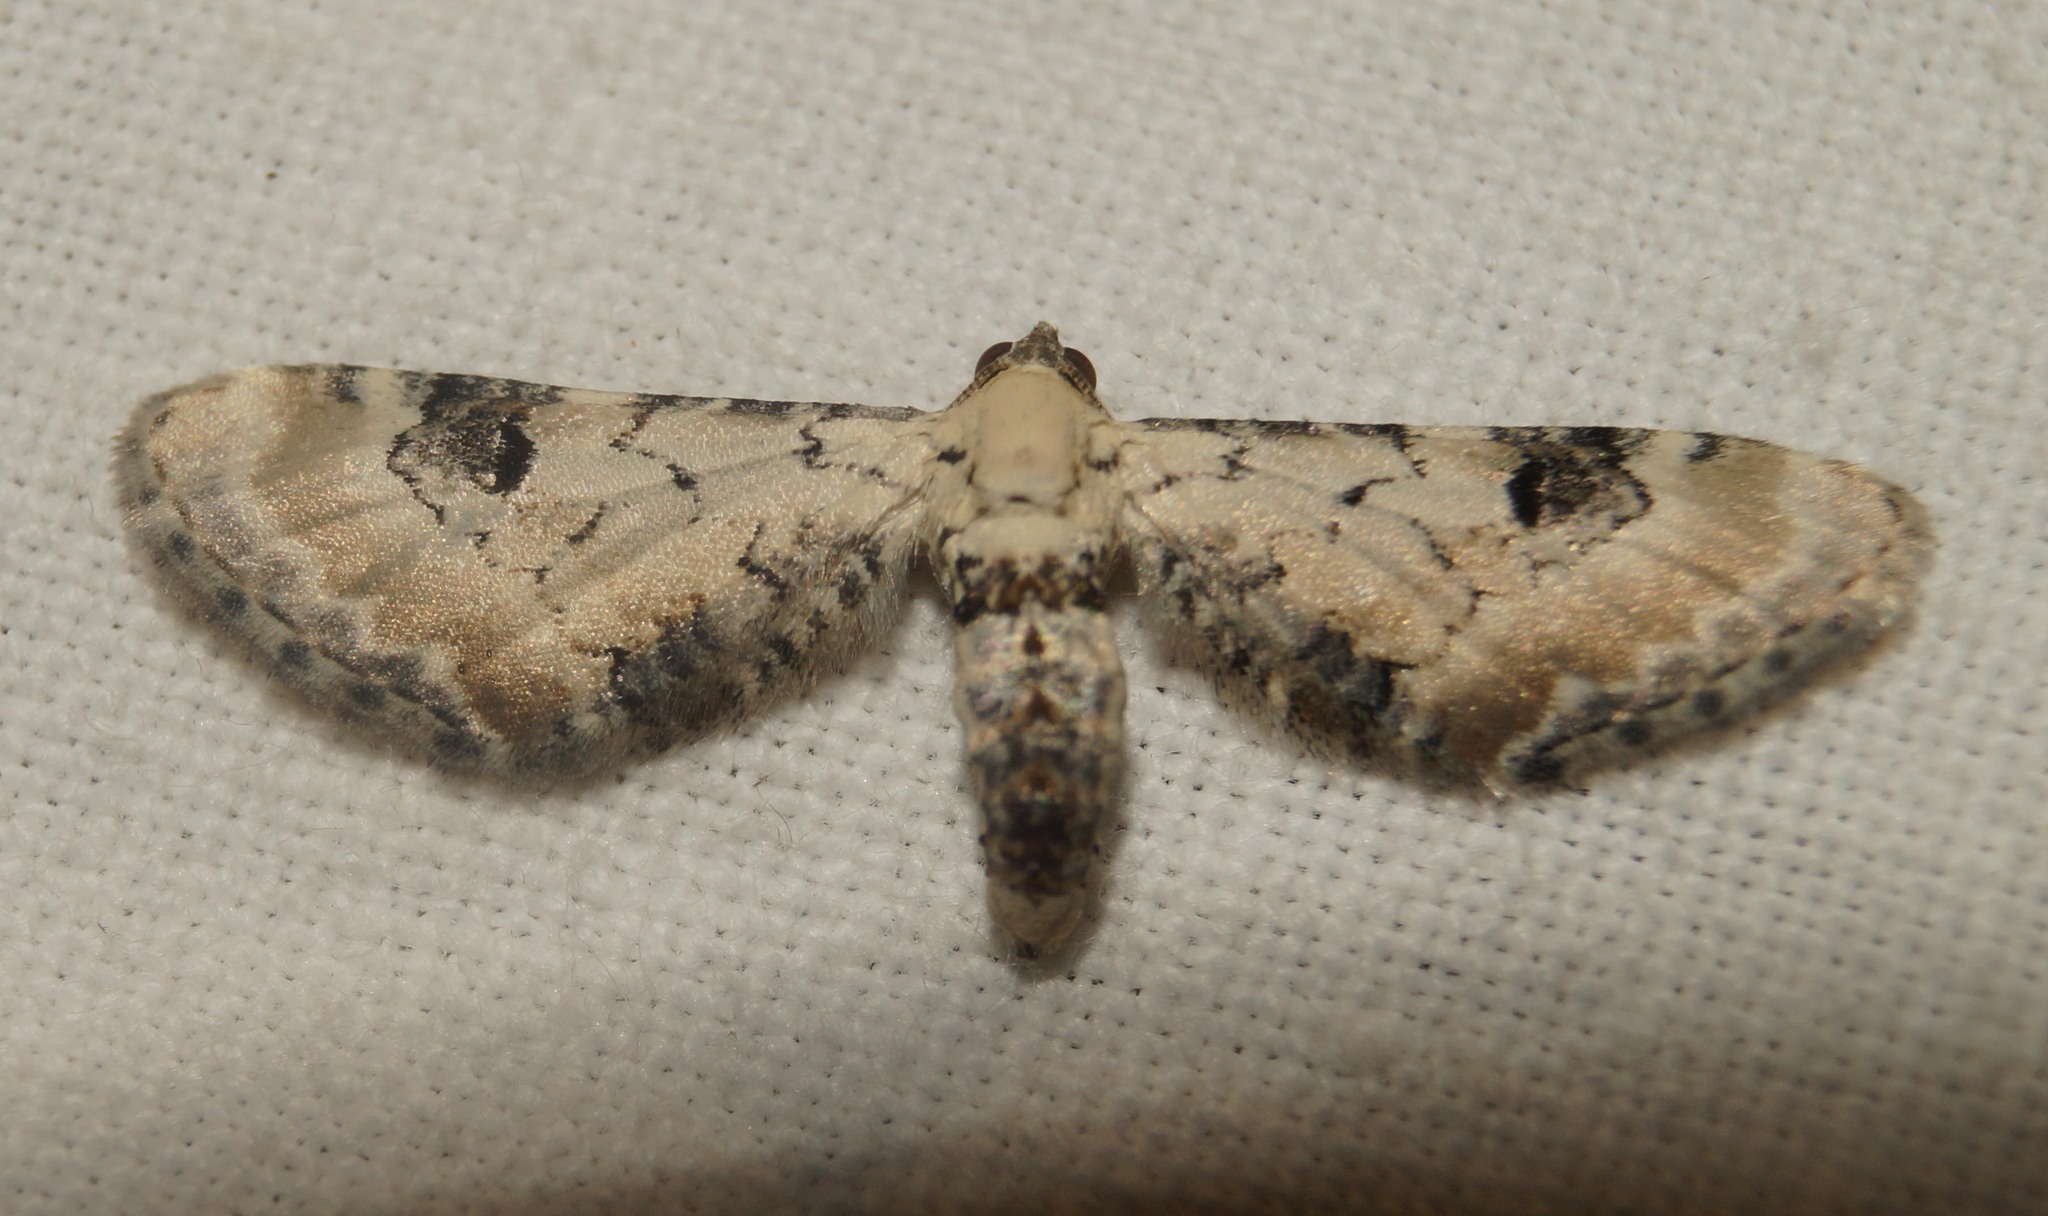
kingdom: Animalia
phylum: Arthropoda
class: Insecta
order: Lepidoptera
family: Geometridae
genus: Eupithecia
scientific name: Eupithecia centaureata
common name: Lime-speck pug
